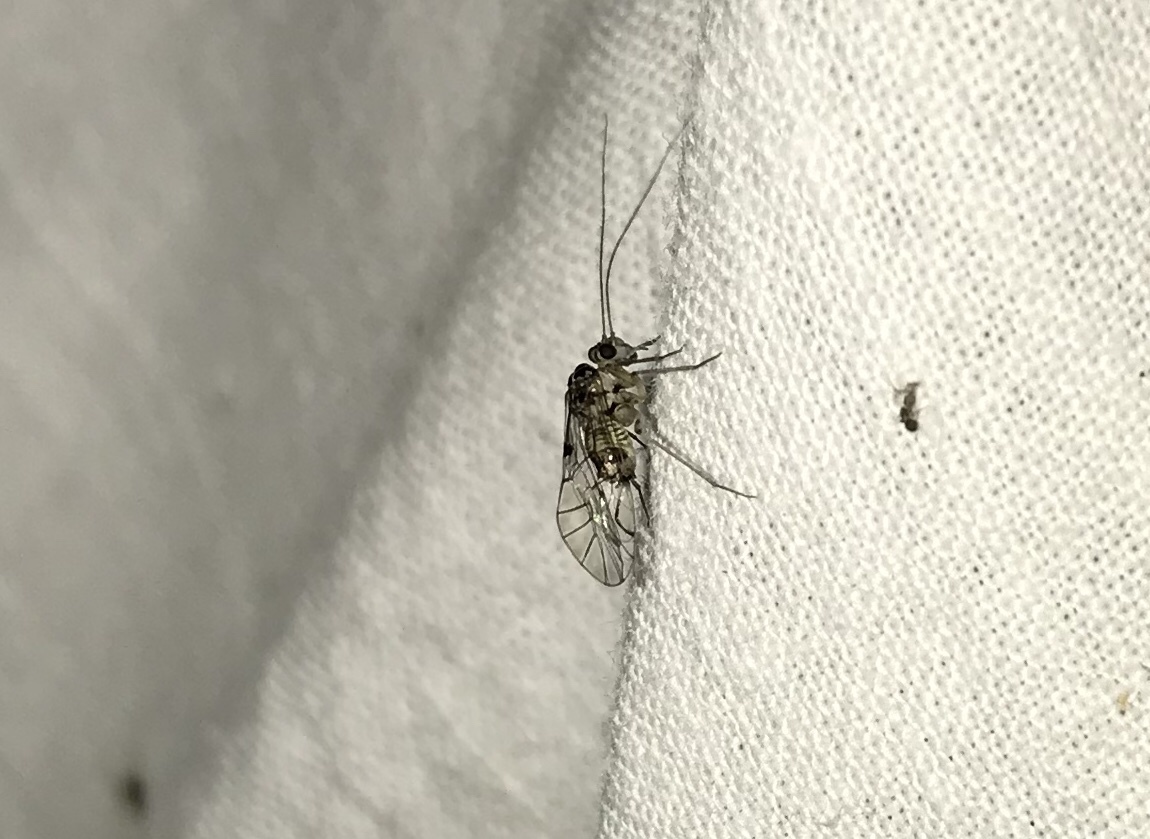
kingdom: Animalia
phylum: Arthropoda
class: Insecta
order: Psocodea
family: Psocidae
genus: Metylophorus
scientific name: Metylophorus purus
